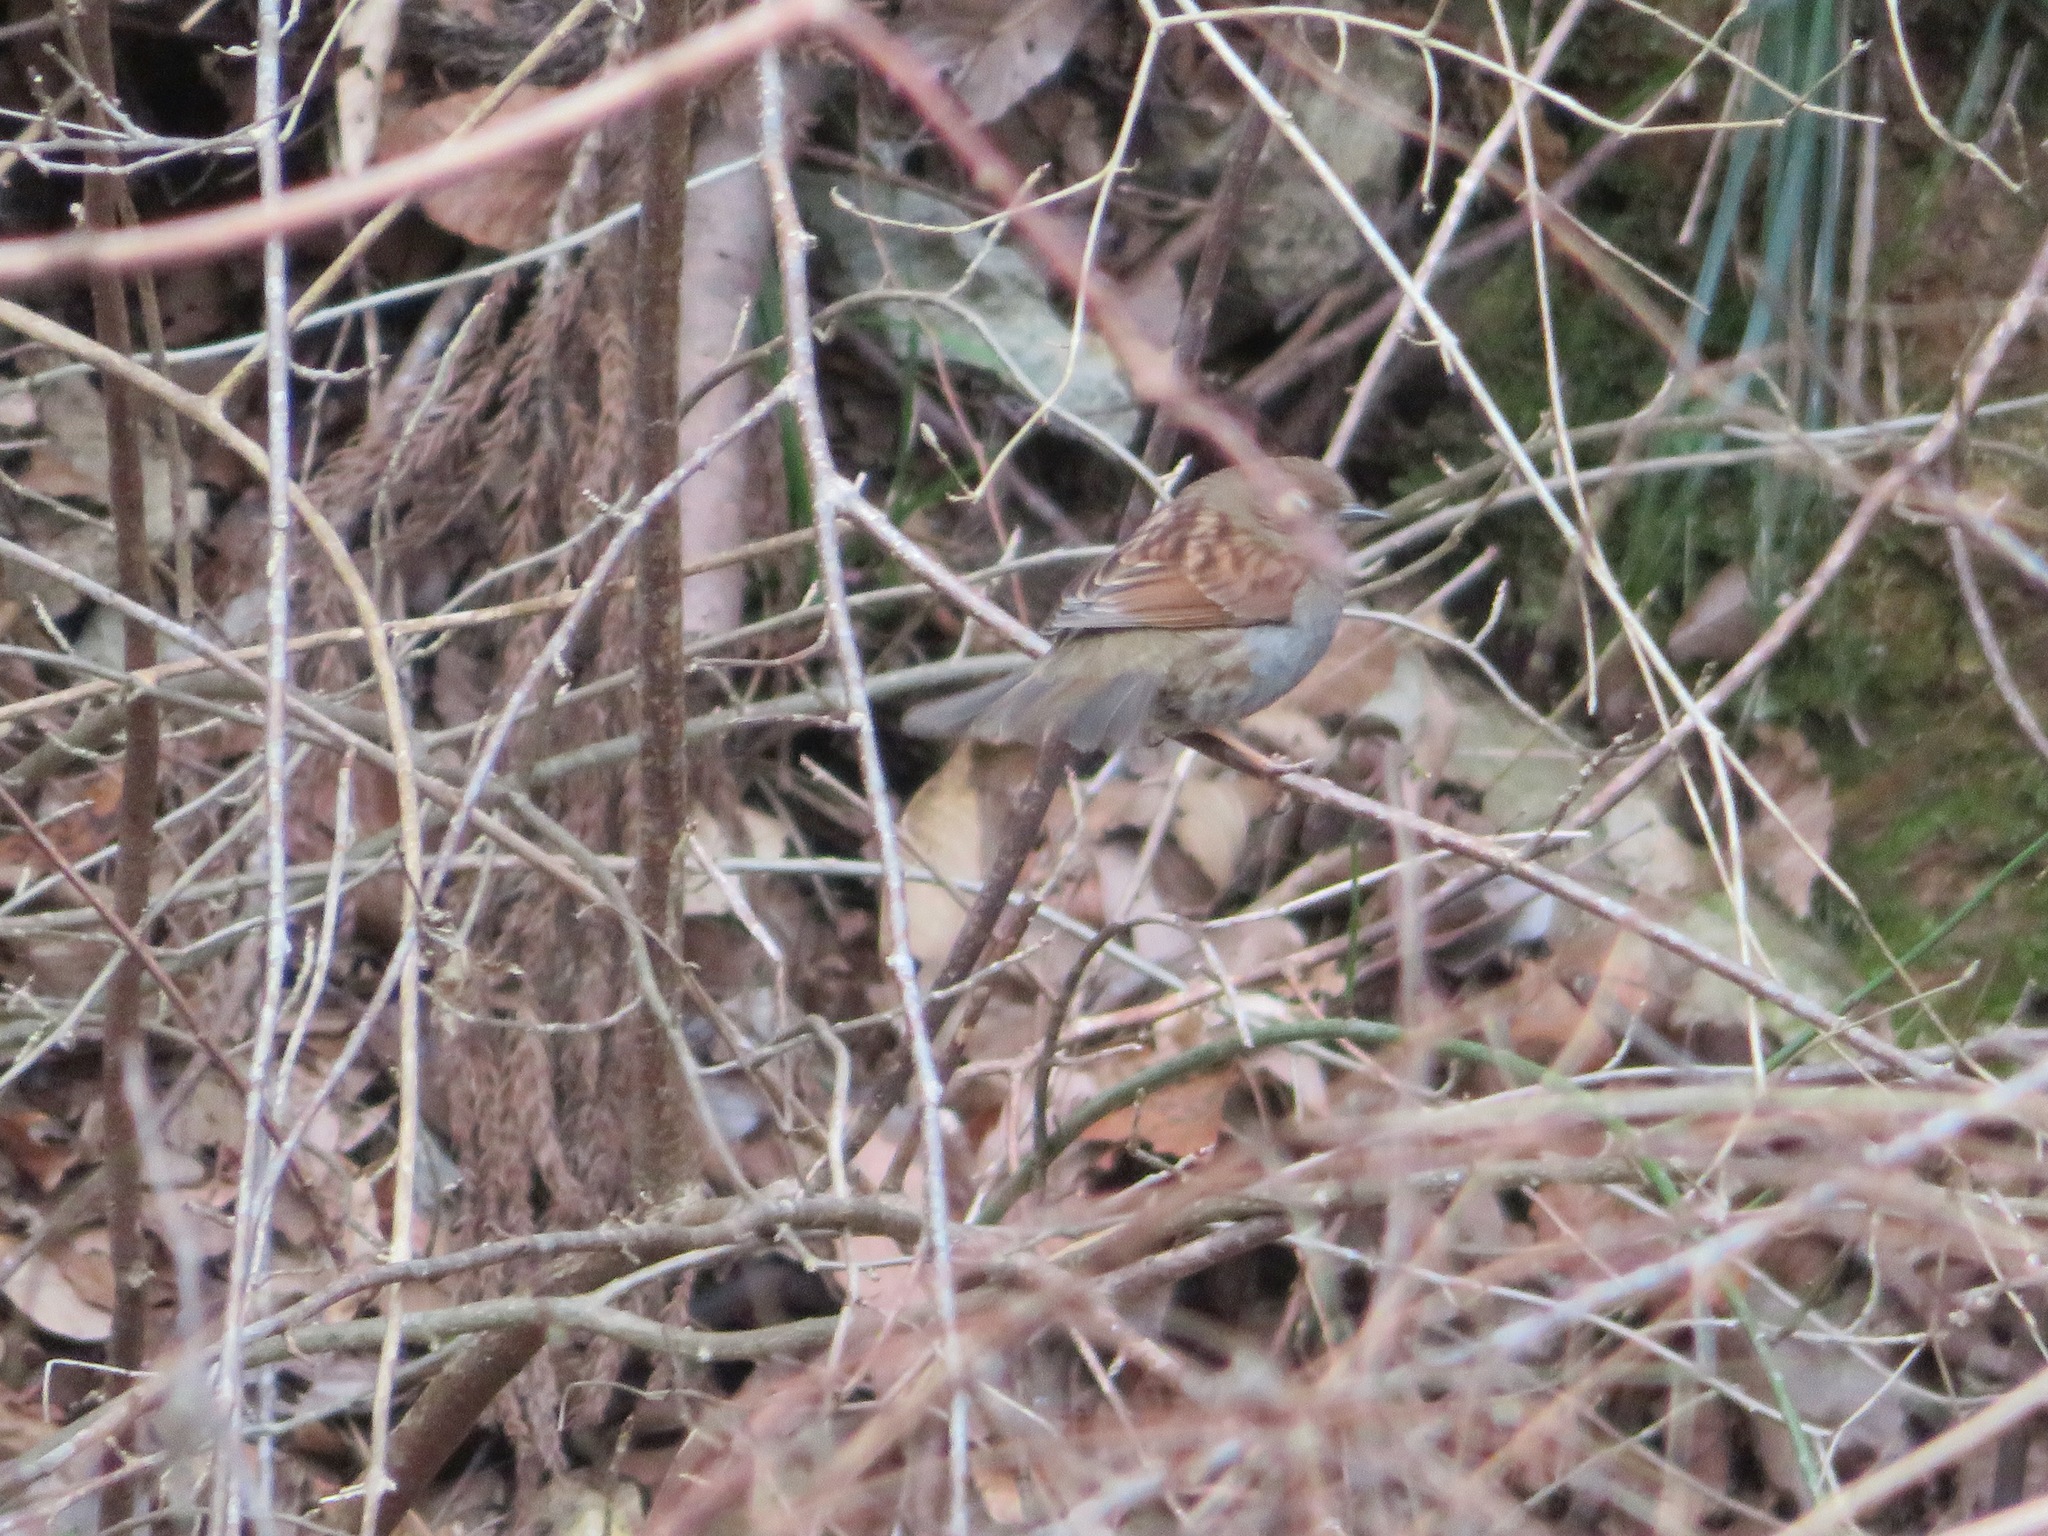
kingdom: Animalia
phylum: Chordata
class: Aves
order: Passeriformes
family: Prunellidae
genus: Prunella
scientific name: Prunella rubida
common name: Japanese accentor
